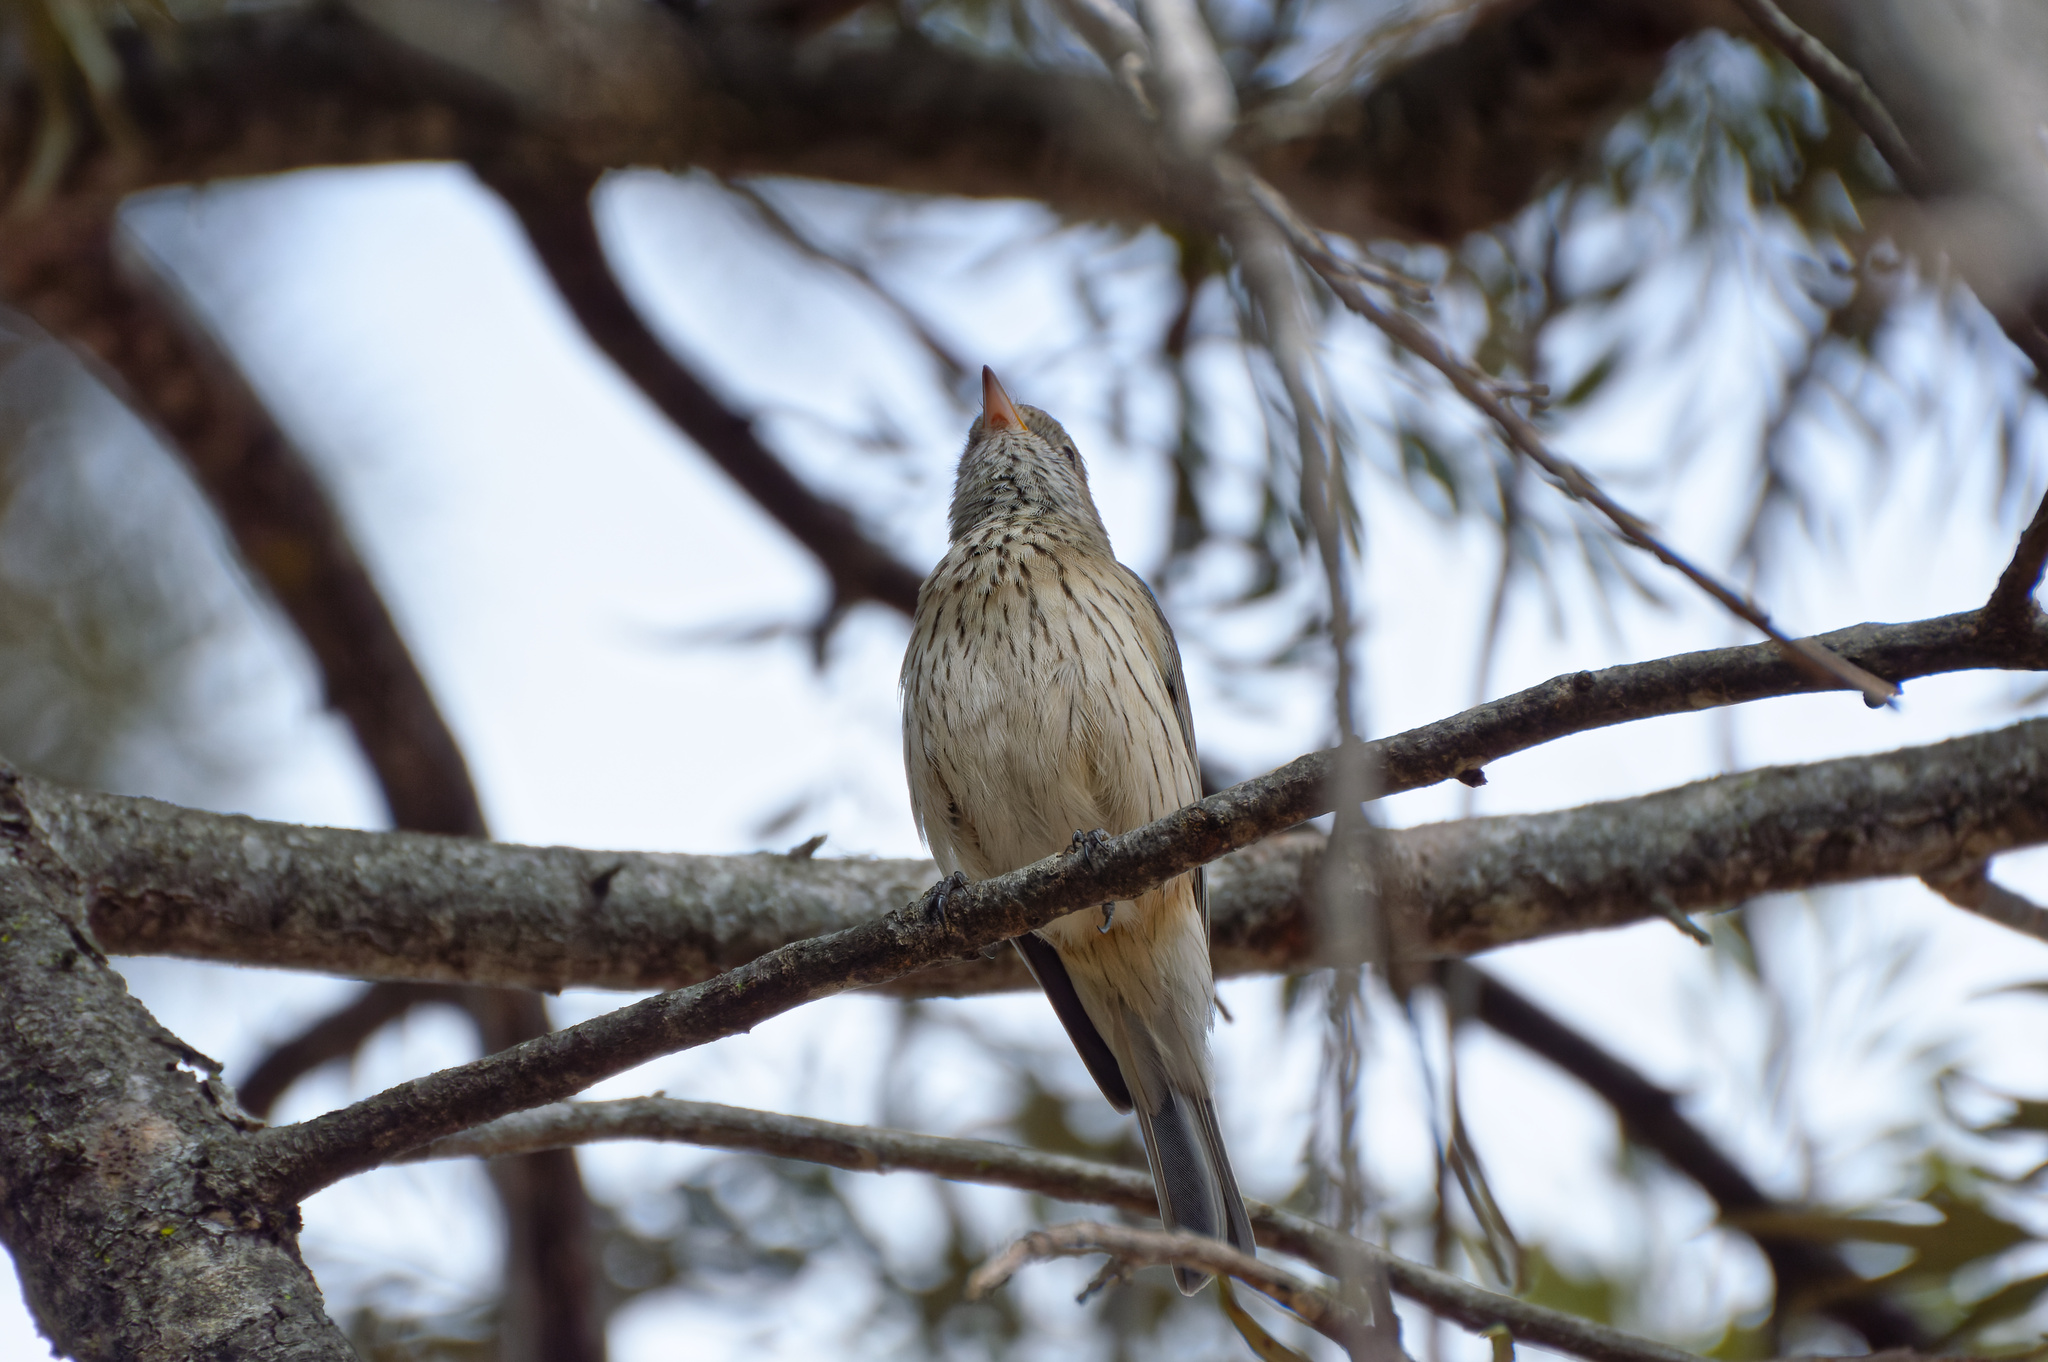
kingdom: Animalia
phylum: Chordata
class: Aves
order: Passeriformes
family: Pachycephalidae
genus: Pachycephala
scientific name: Pachycephala rufiventris
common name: Rufous whistler
